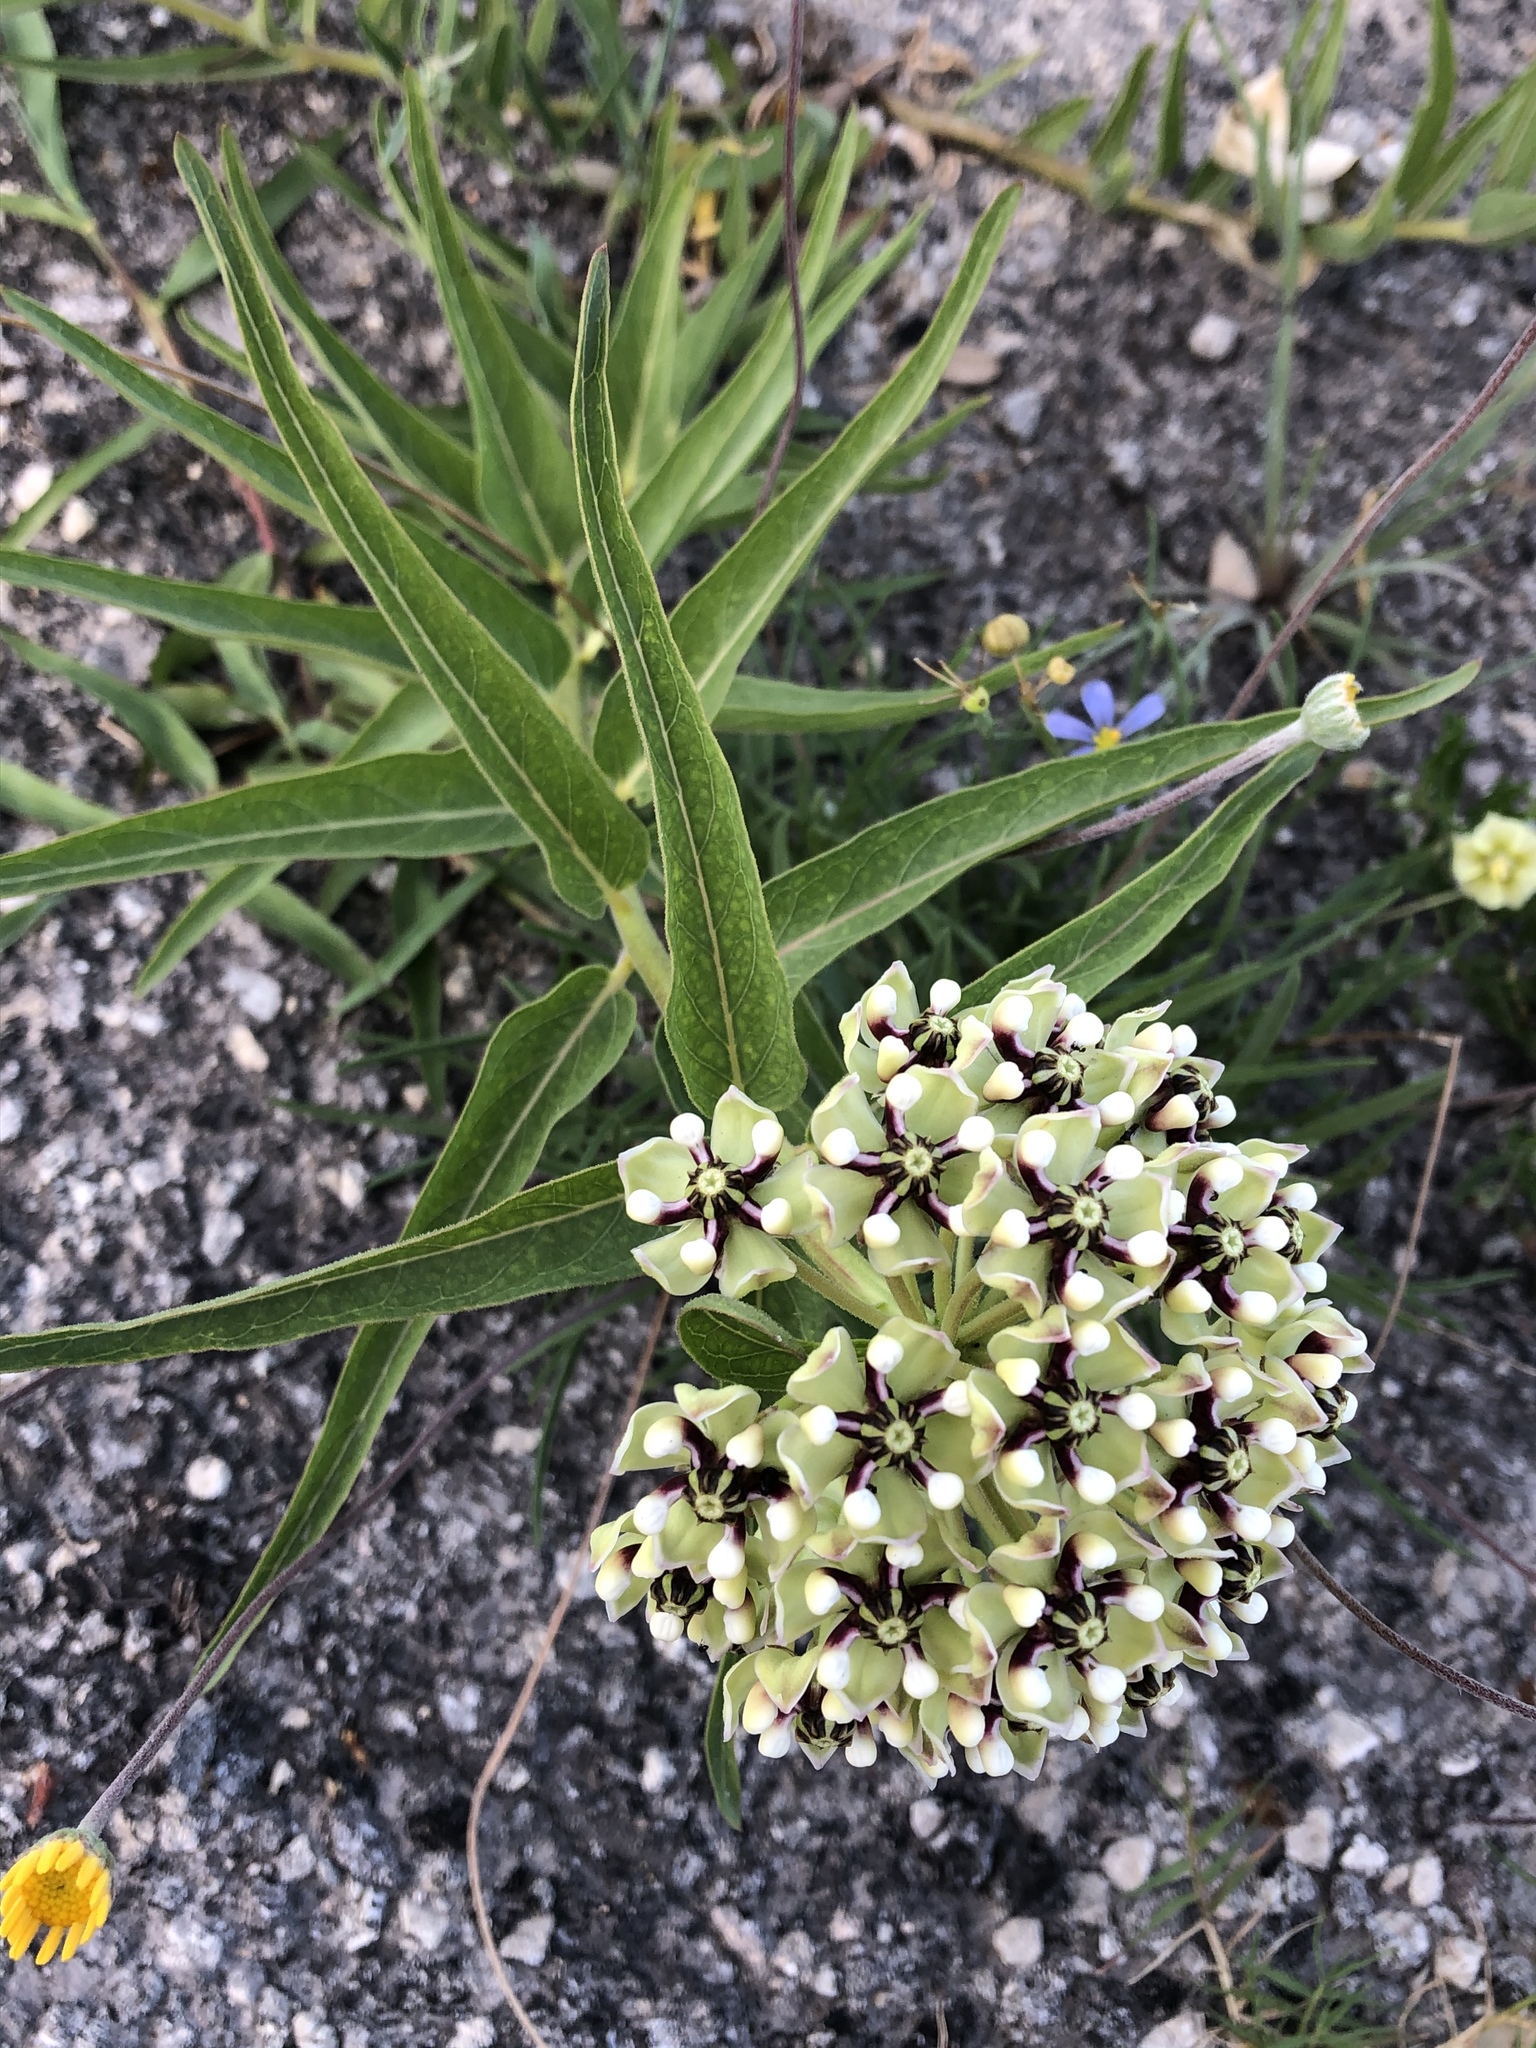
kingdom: Plantae
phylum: Tracheophyta
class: Magnoliopsida
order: Gentianales
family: Apocynaceae
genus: Asclepias
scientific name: Asclepias asperula
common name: Antelope horns
